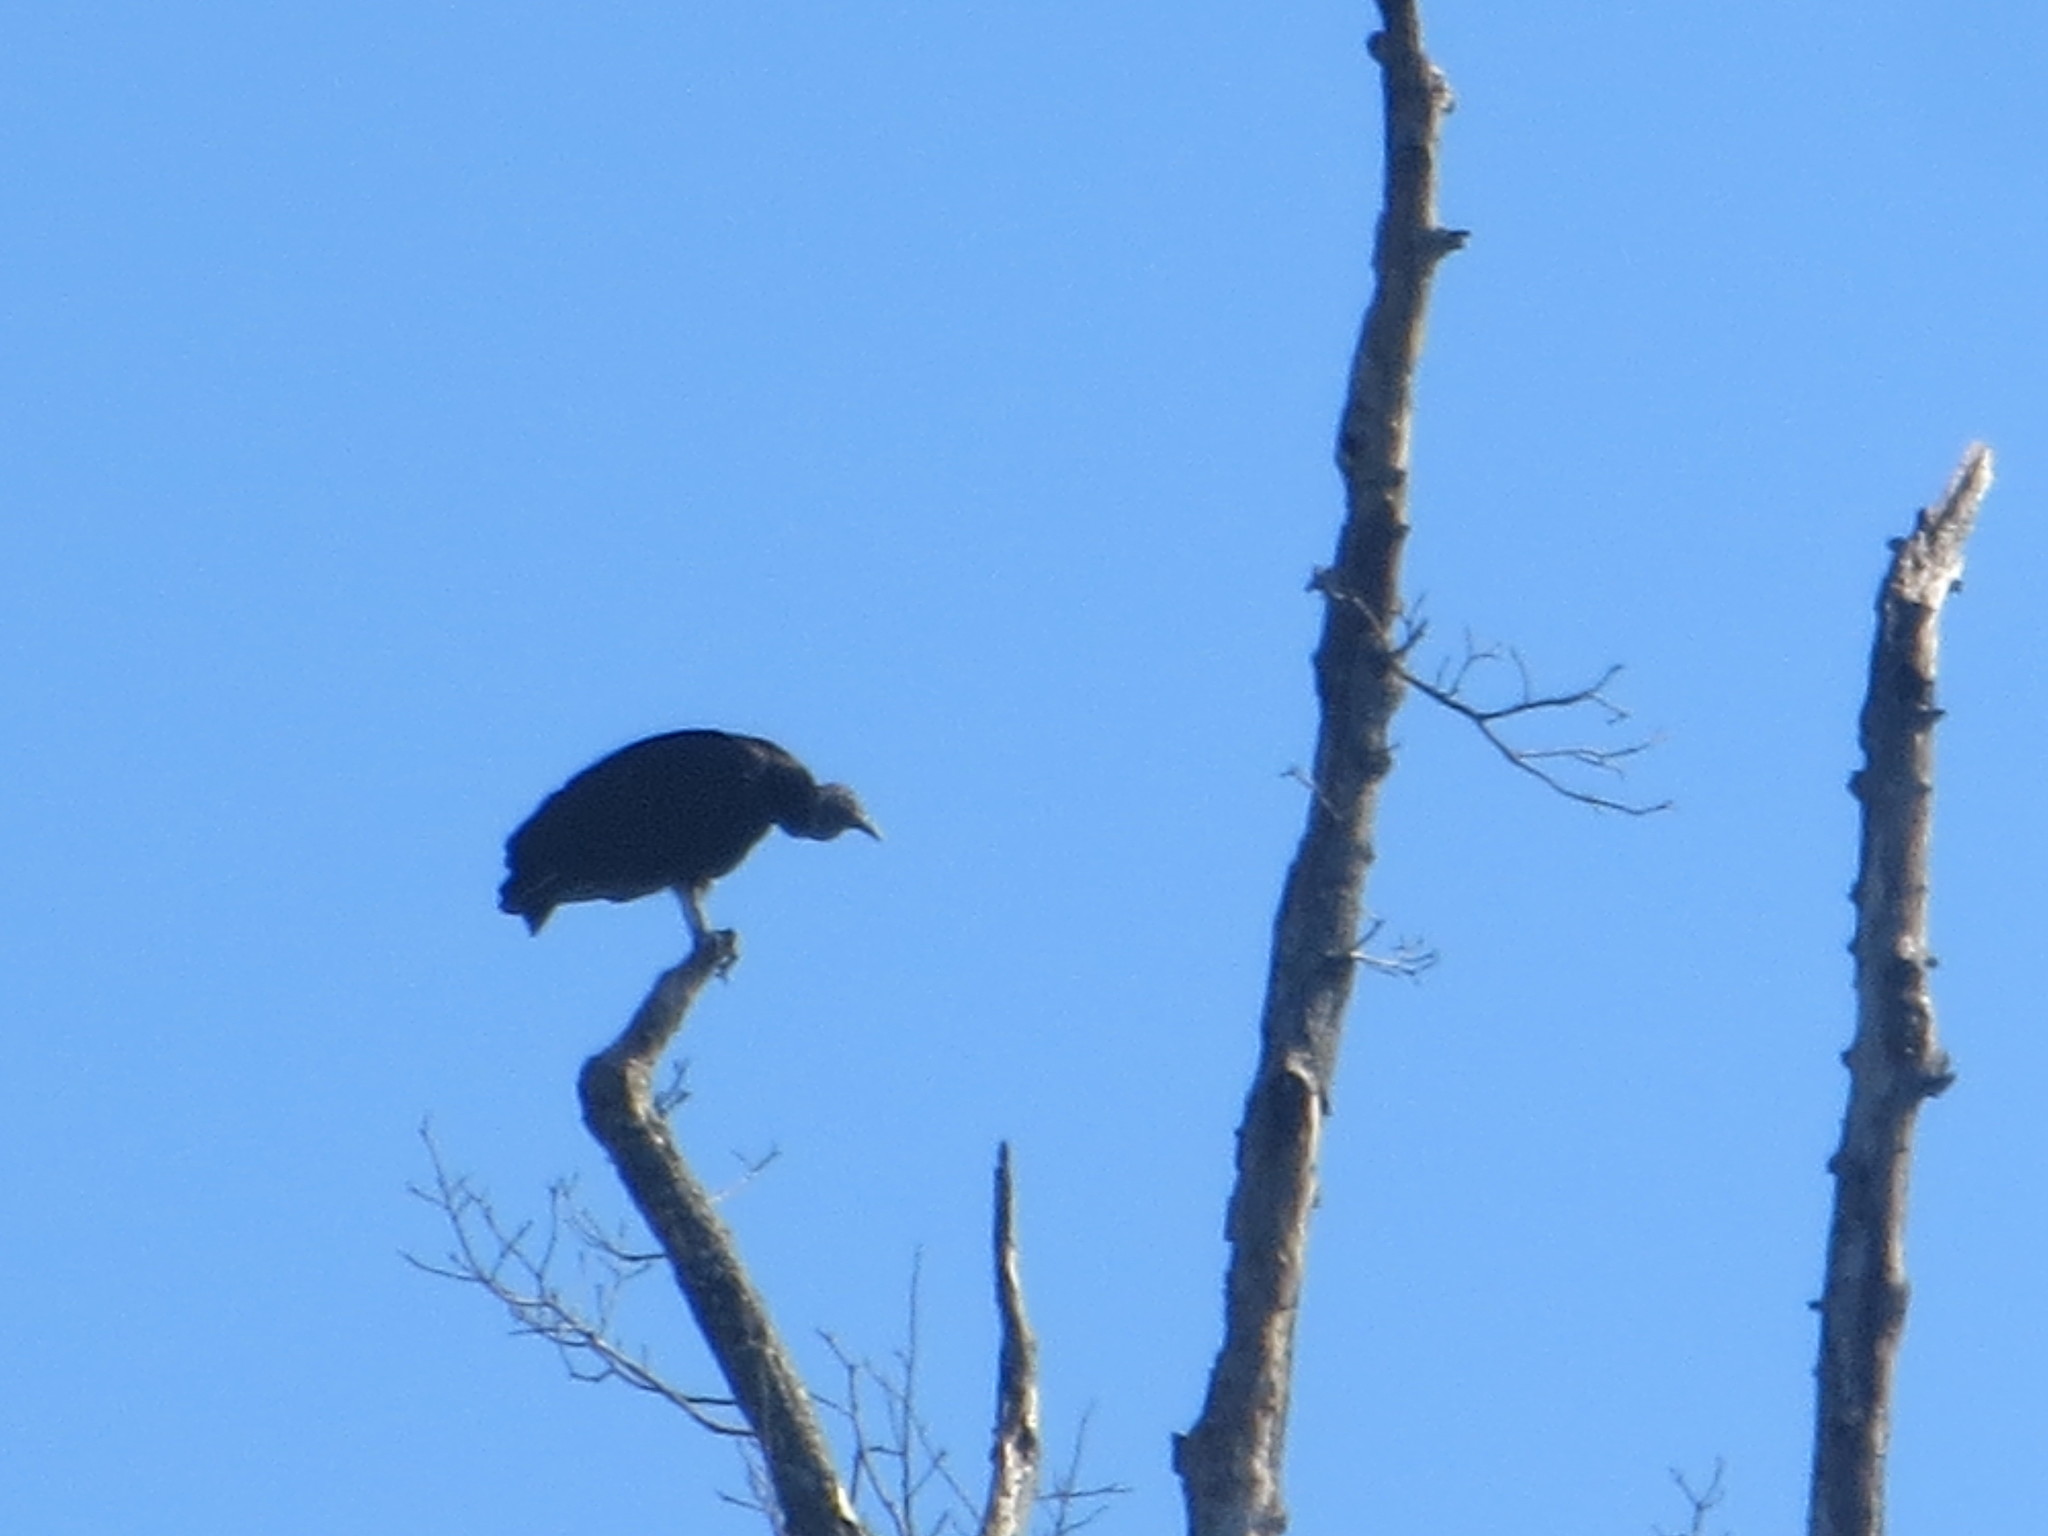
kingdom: Animalia
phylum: Chordata
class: Aves
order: Accipitriformes
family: Cathartidae
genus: Coragyps
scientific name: Coragyps atratus
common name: Black vulture
